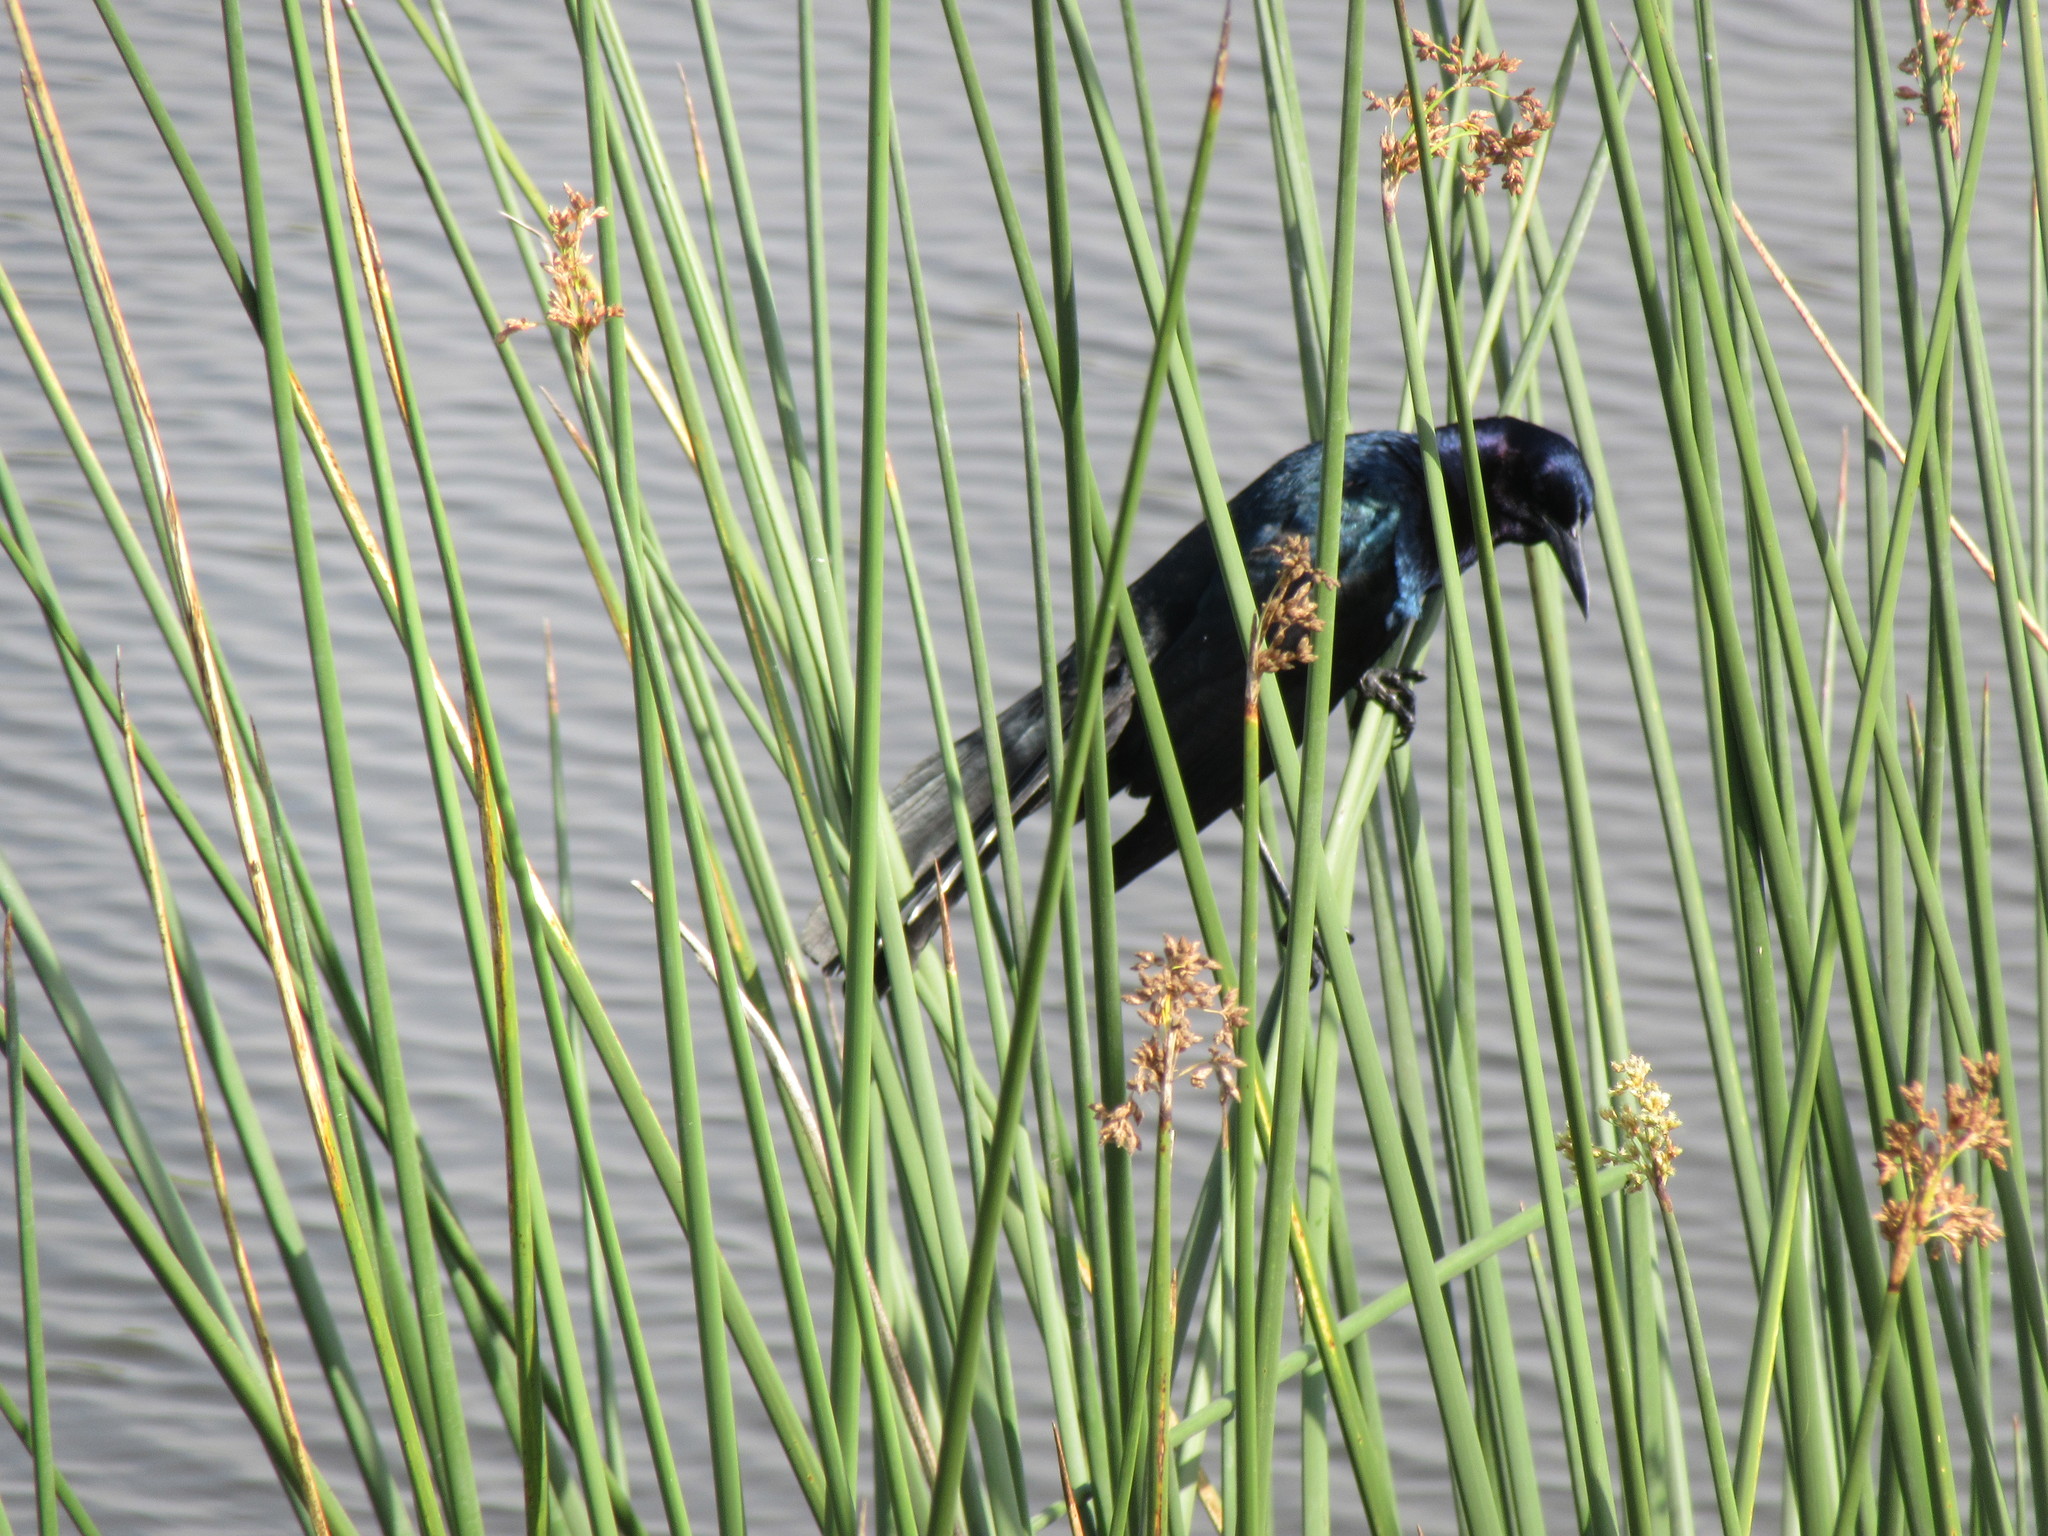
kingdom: Animalia
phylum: Chordata
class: Aves
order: Passeriformes
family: Icteridae
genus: Quiscalus
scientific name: Quiscalus major
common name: Boat-tailed grackle
